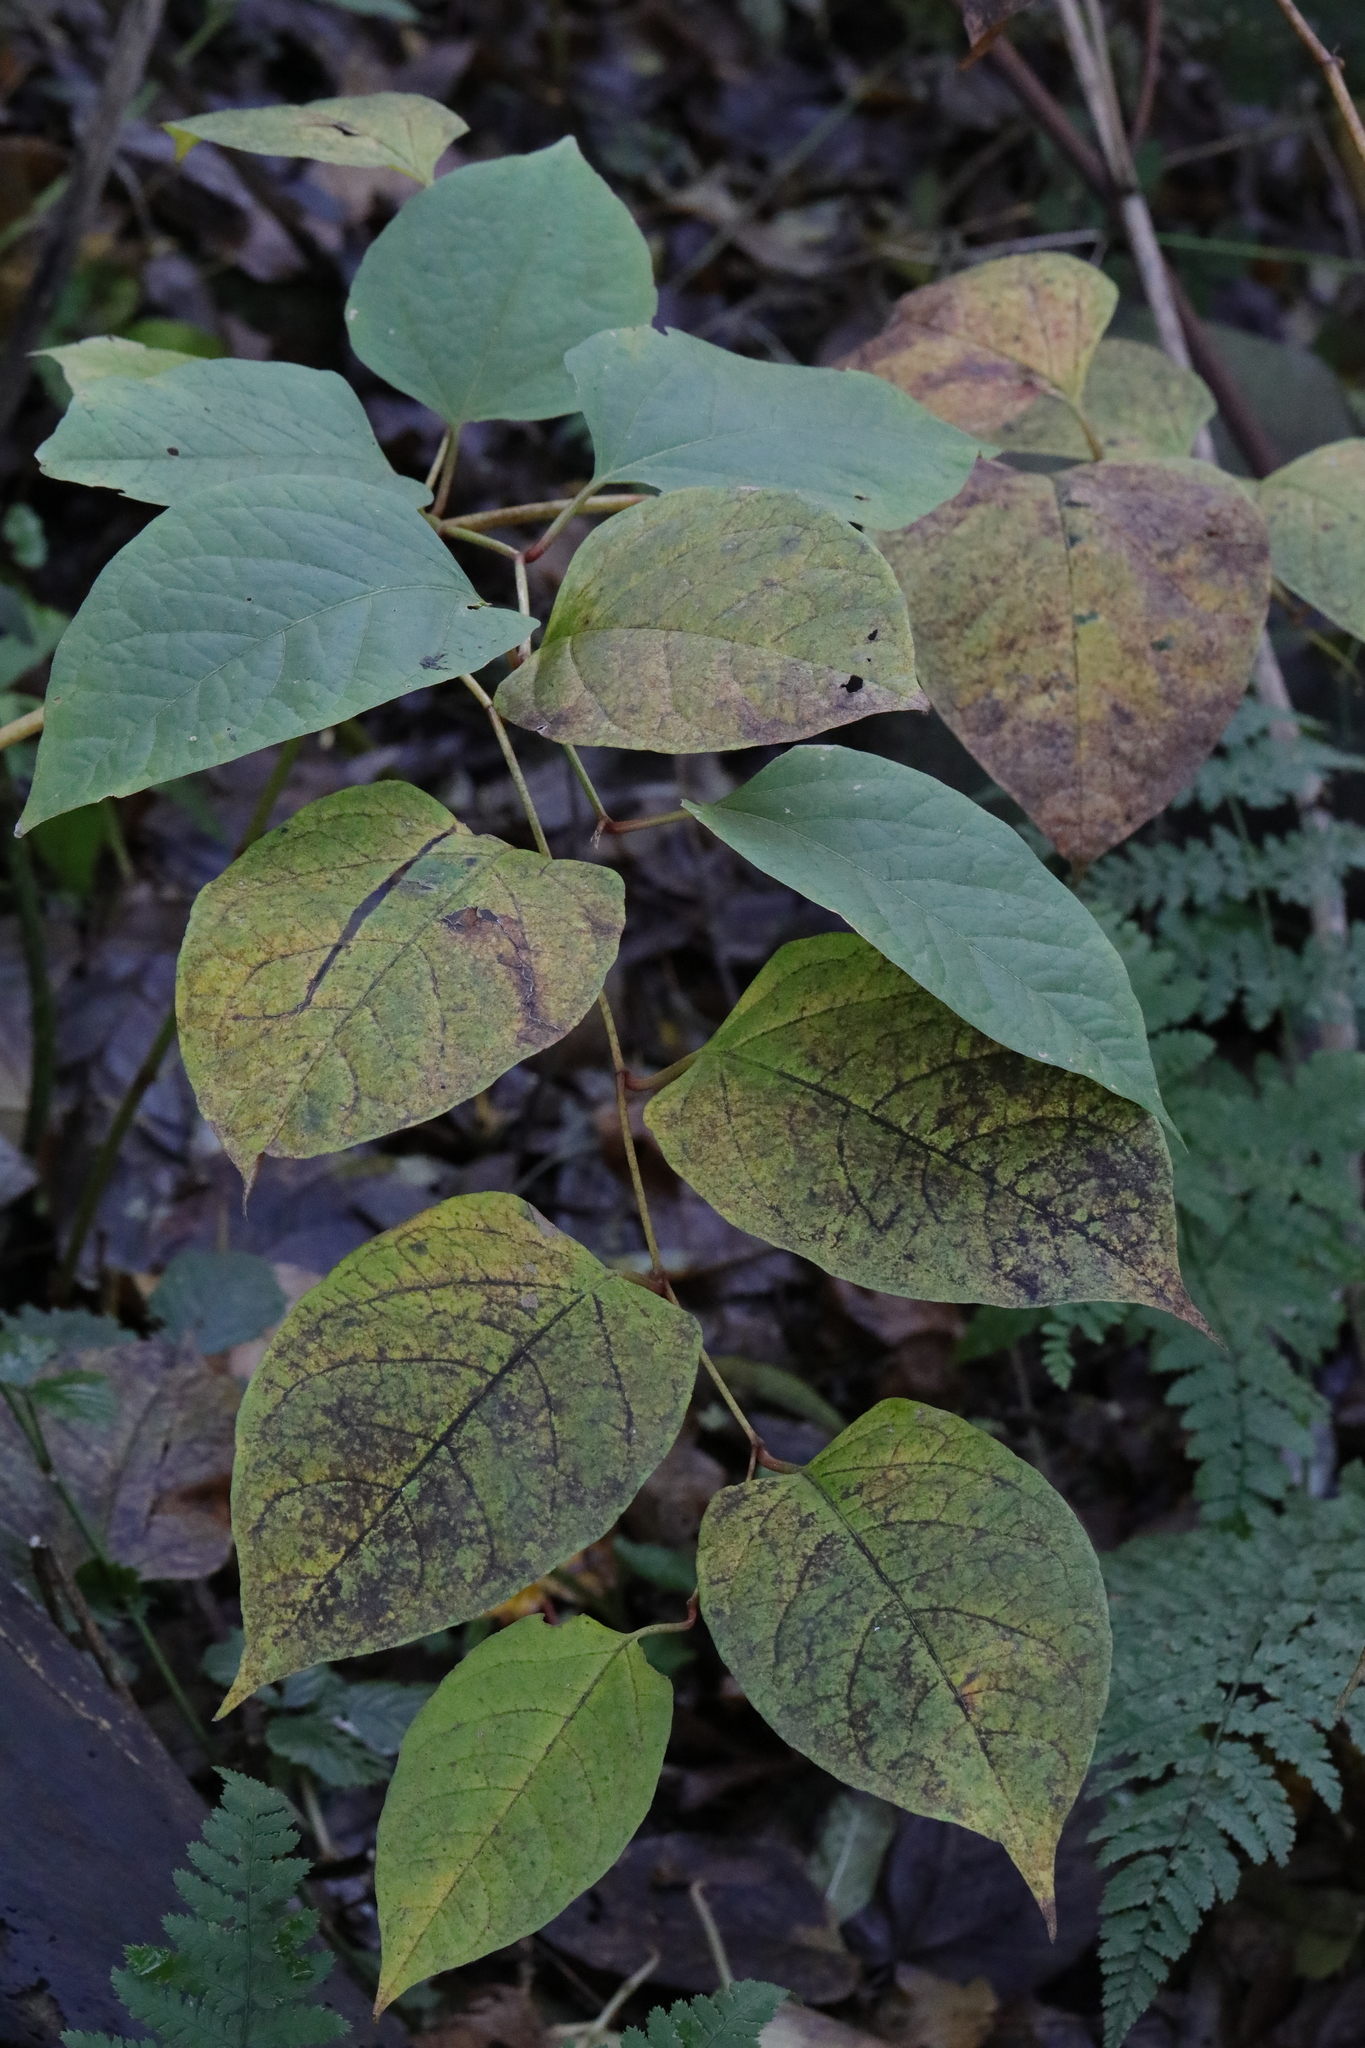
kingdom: Plantae
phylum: Tracheophyta
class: Magnoliopsida
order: Caryophyllales
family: Polygonaceae
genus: Reynoutria
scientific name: Reynoutria japonica
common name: Japanese knotweed
